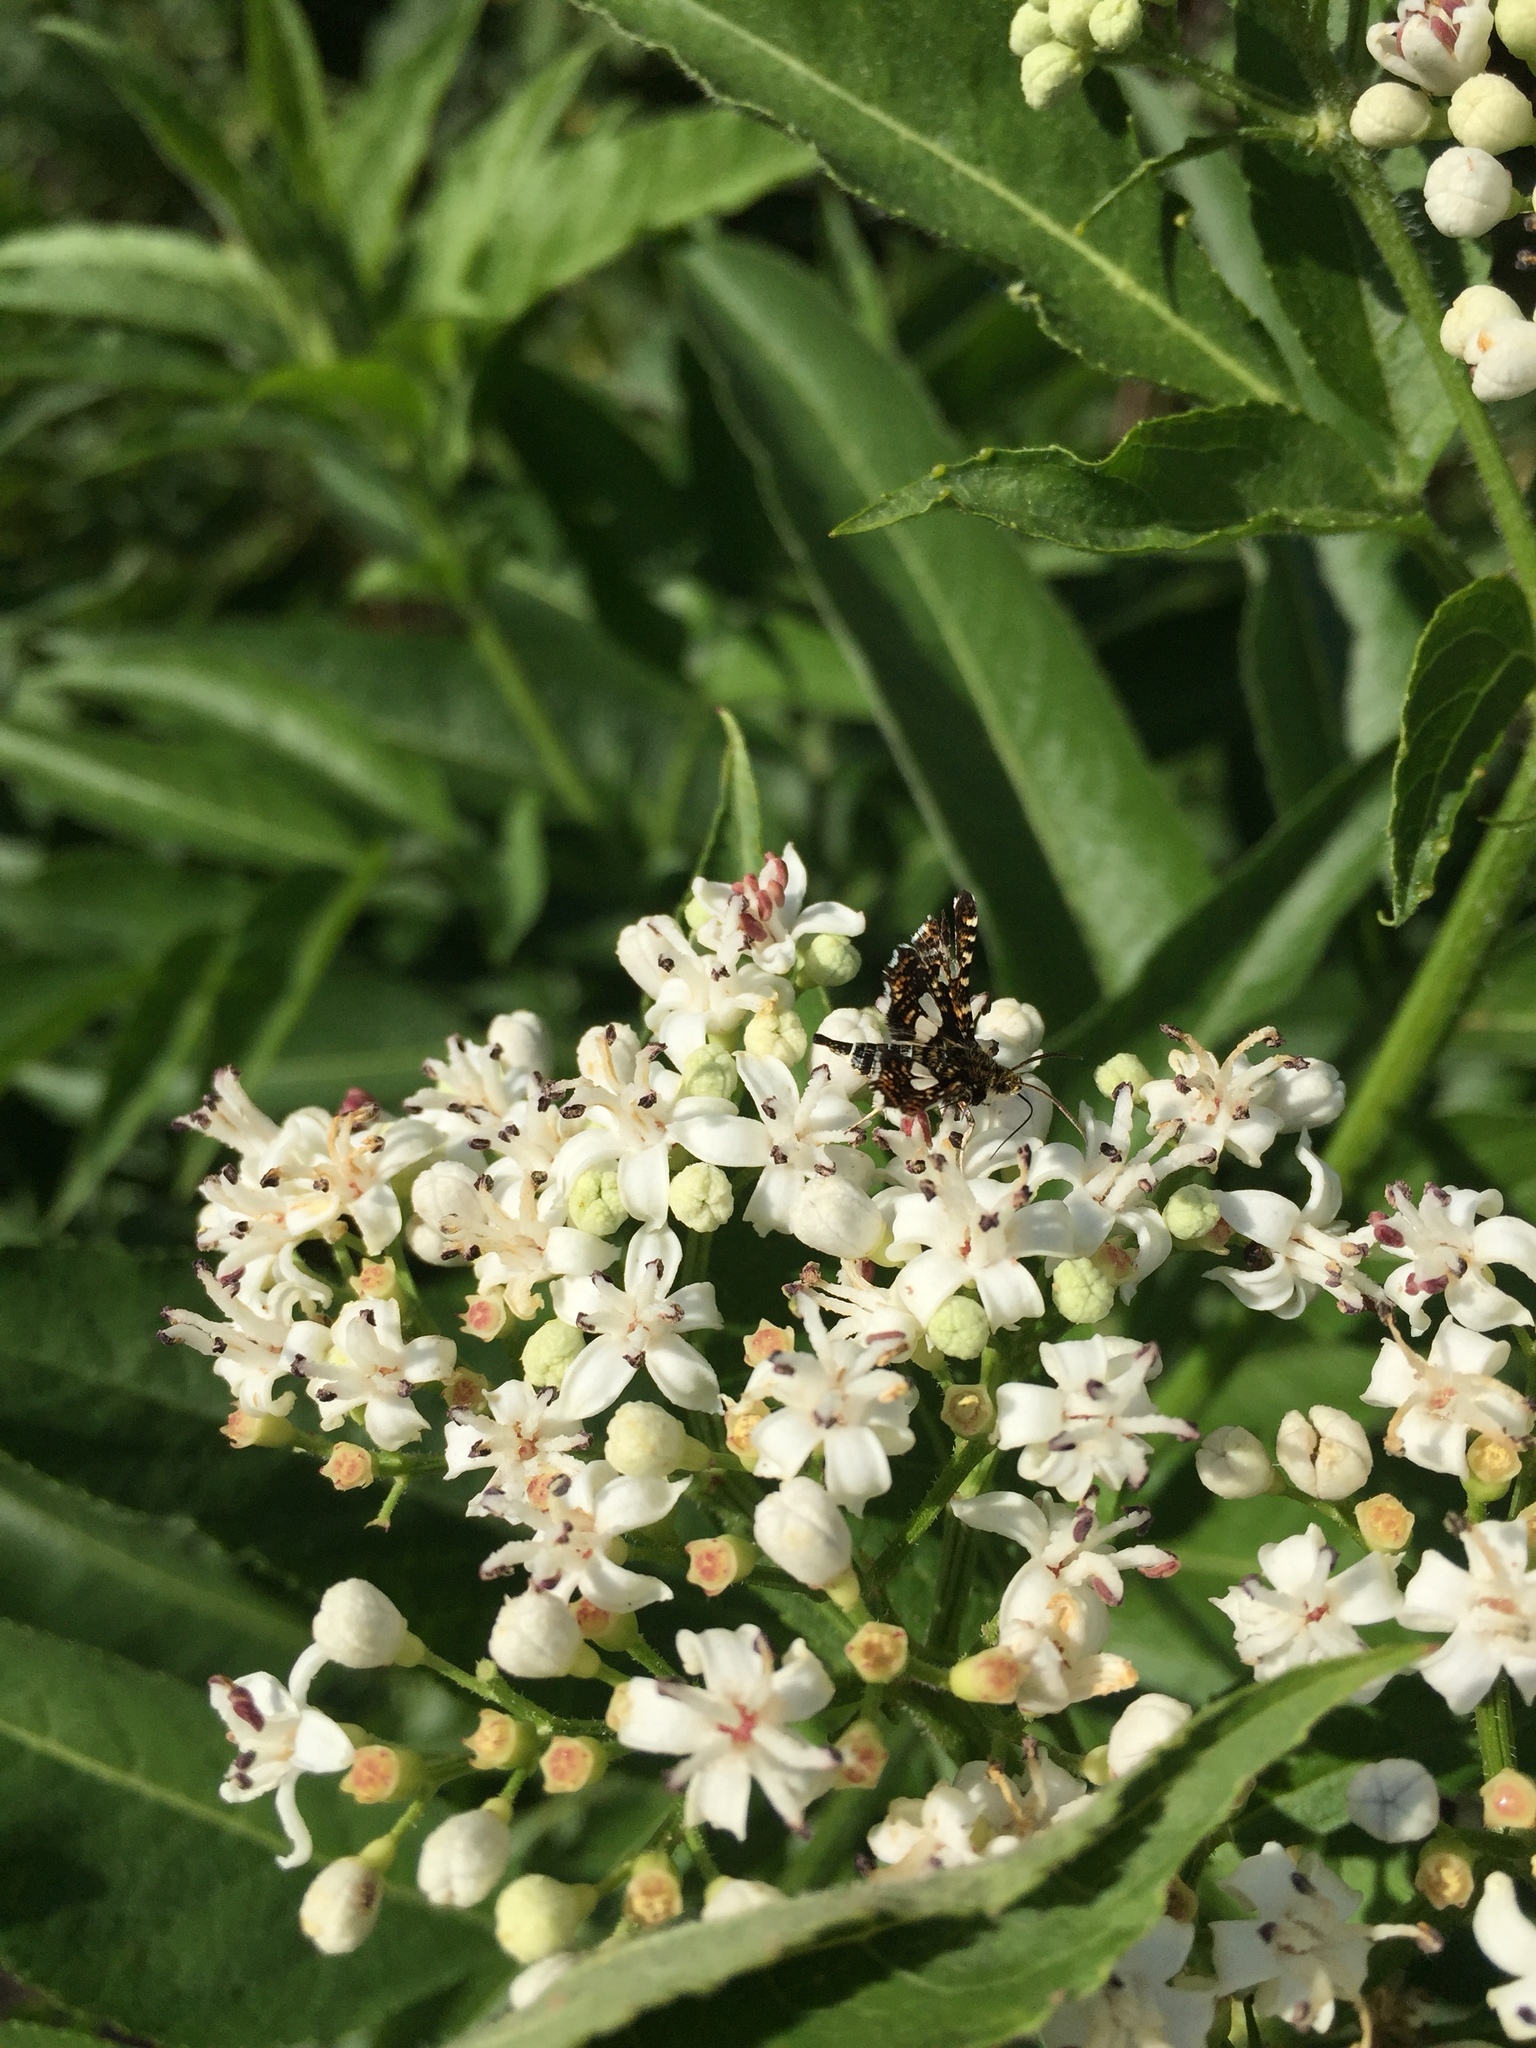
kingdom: Plantae
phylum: Tracheophyta
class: Magnoliopsida
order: Dipsacales
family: Viburnaceae
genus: Sambucus
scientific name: Sambucus ebulus
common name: Dwarf elder
